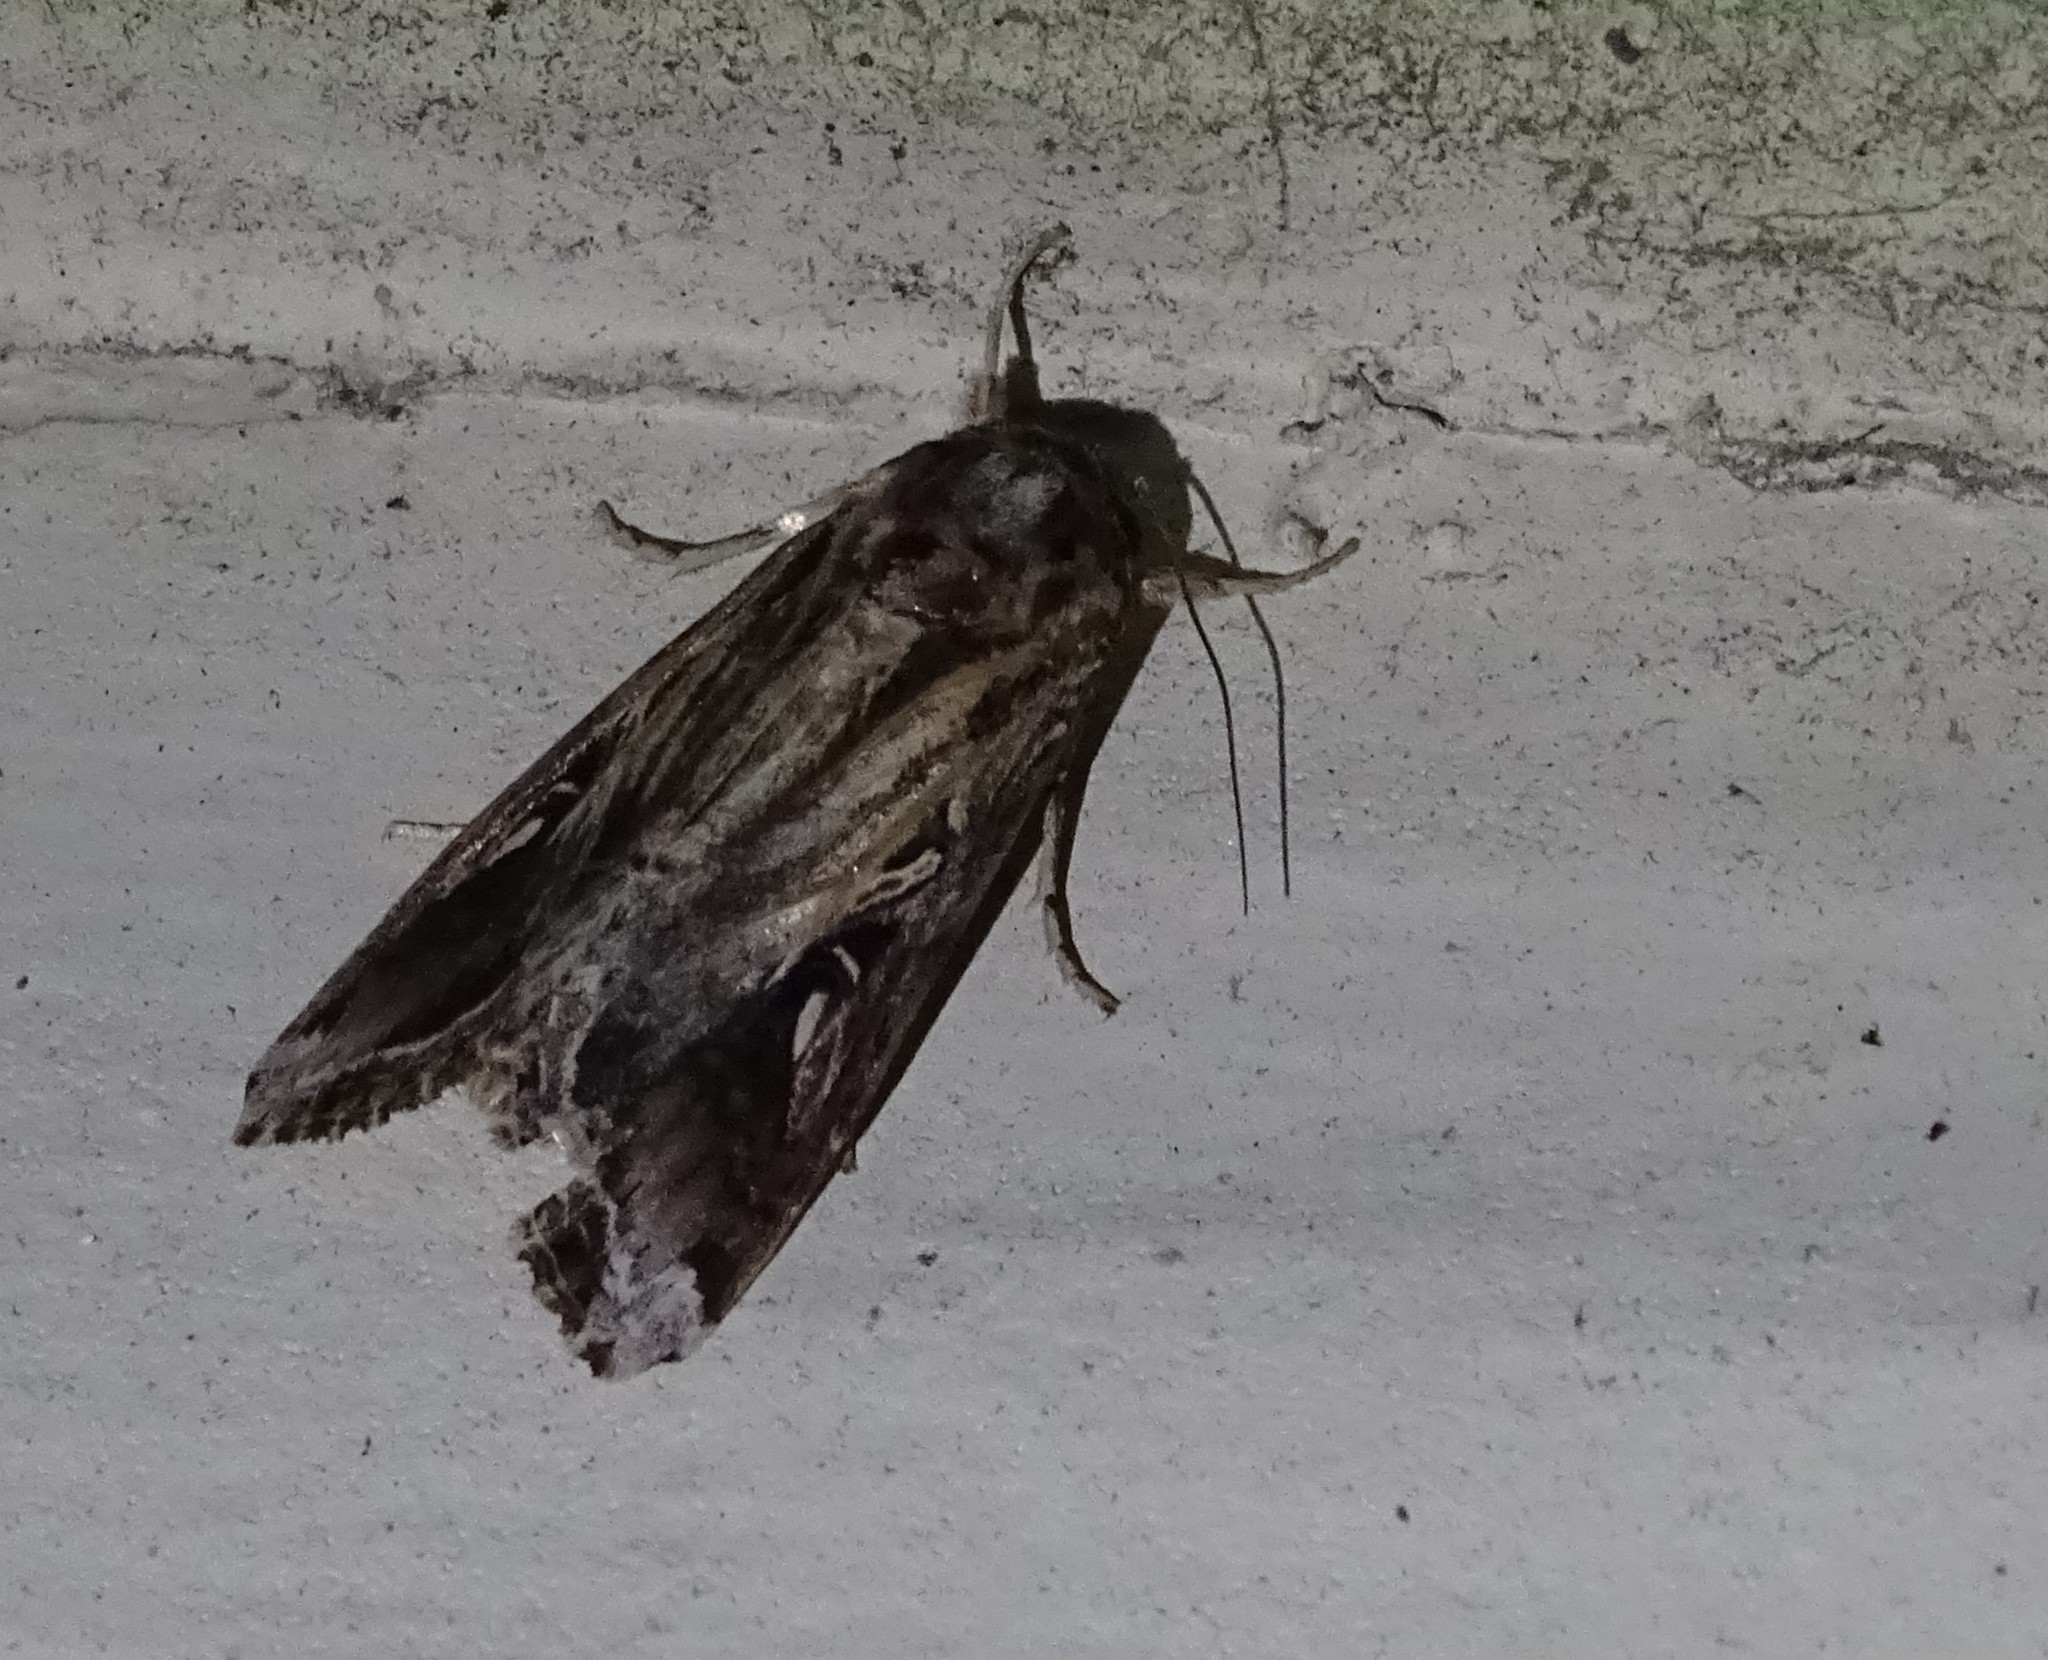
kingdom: Animalia
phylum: Arthropoda
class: Insecta
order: Lepidoptera
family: Noctuidae
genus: Spodoptera
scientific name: Spodoptera dolichos
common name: Sweetpotato armyworm
